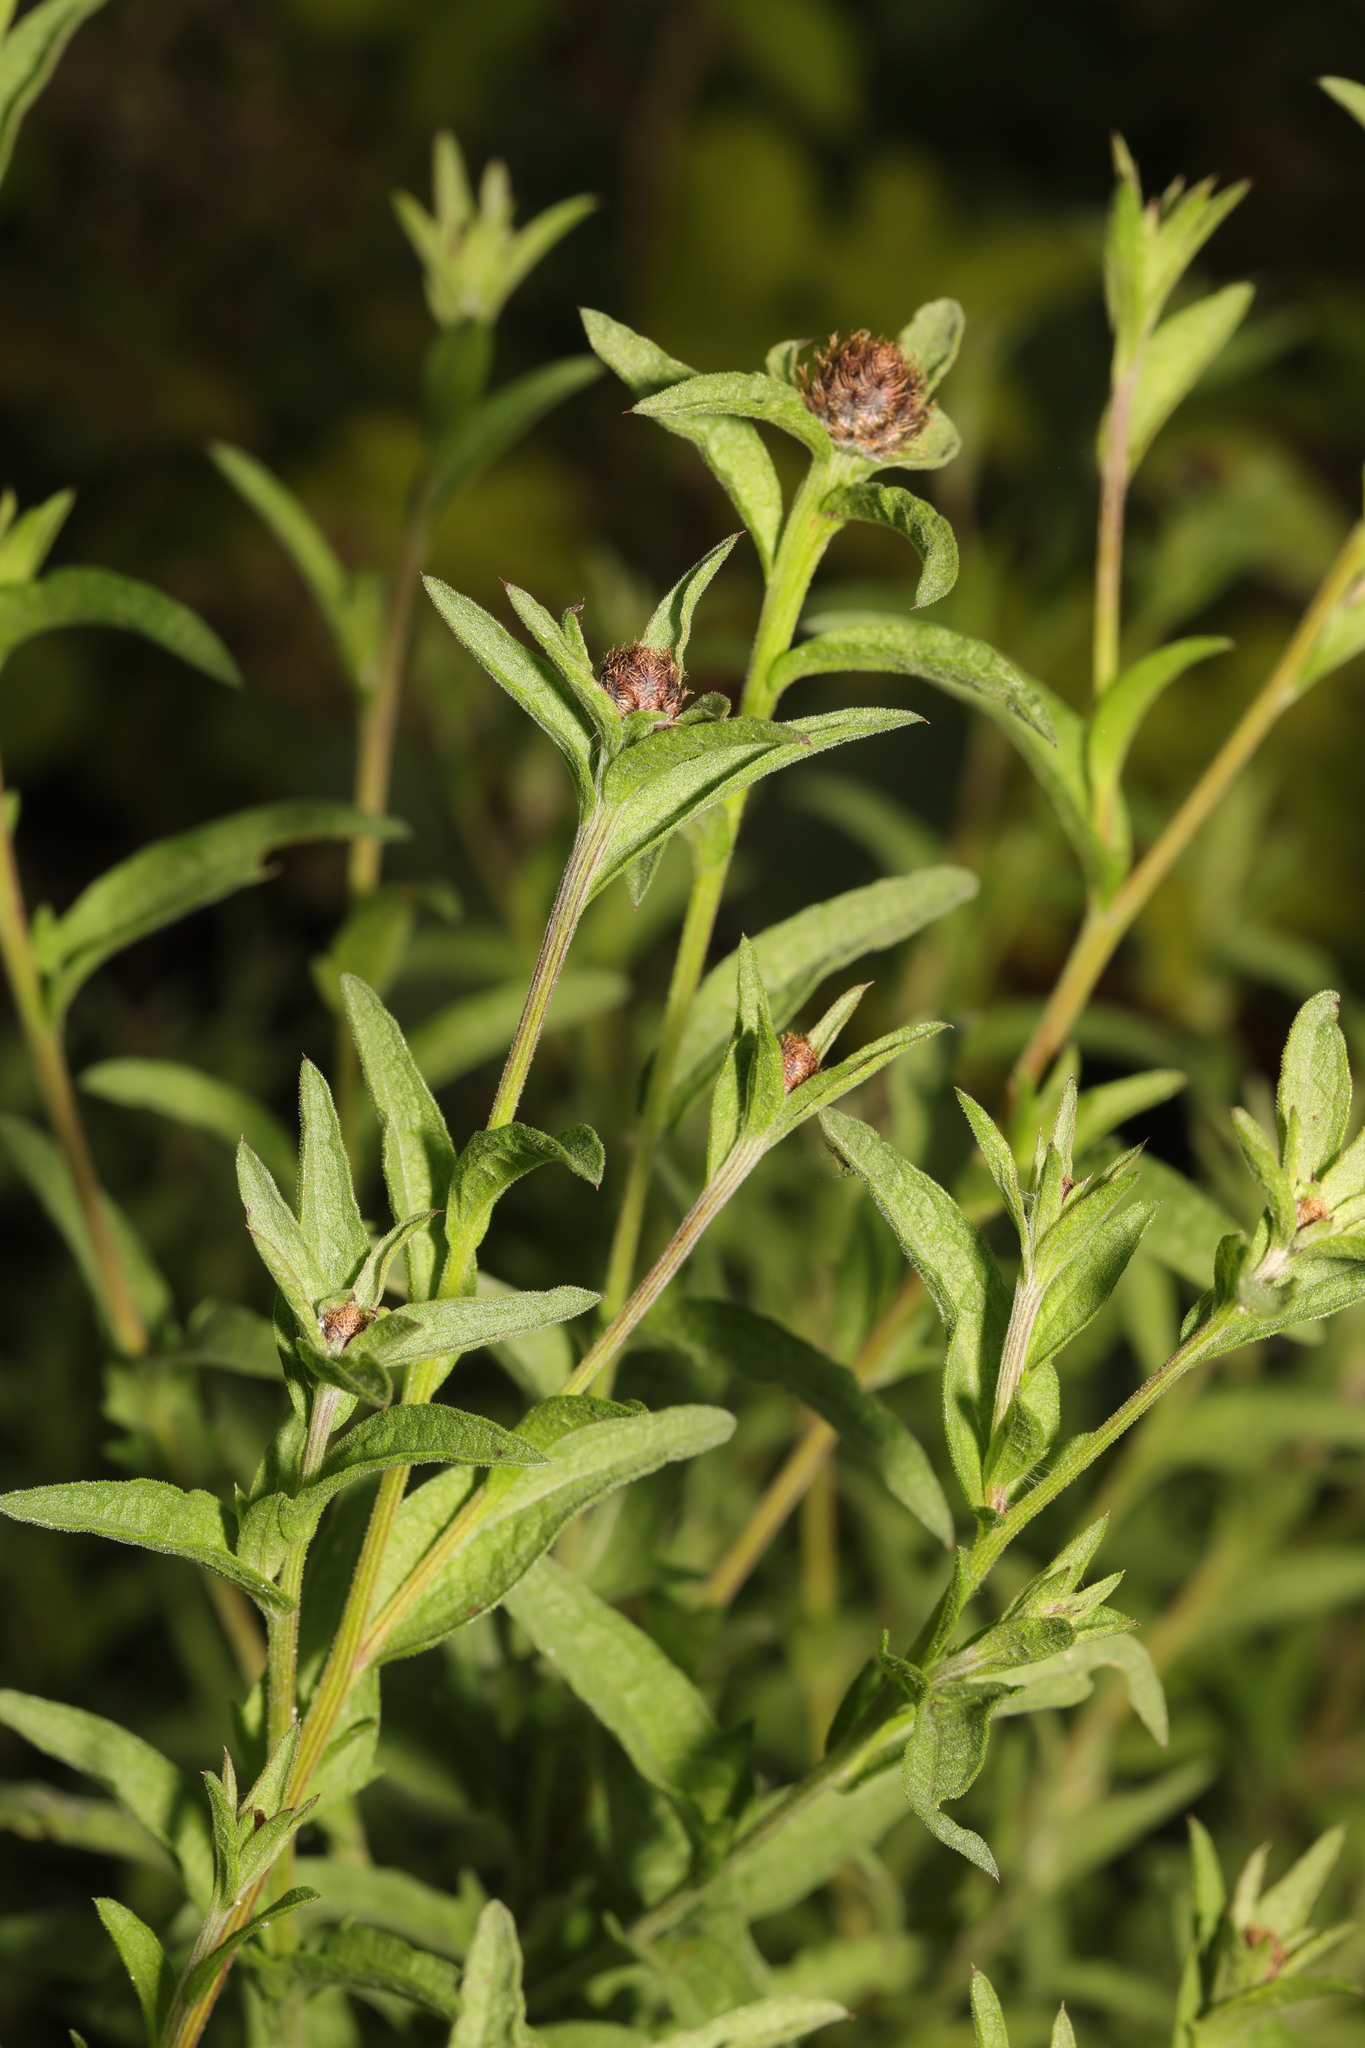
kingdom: Plantae
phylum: Tracheophyta
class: Magnoliopsida
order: Asterales
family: Asteraceae
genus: Centaurea
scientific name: Centaurea nigra
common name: Lesser knapweed
